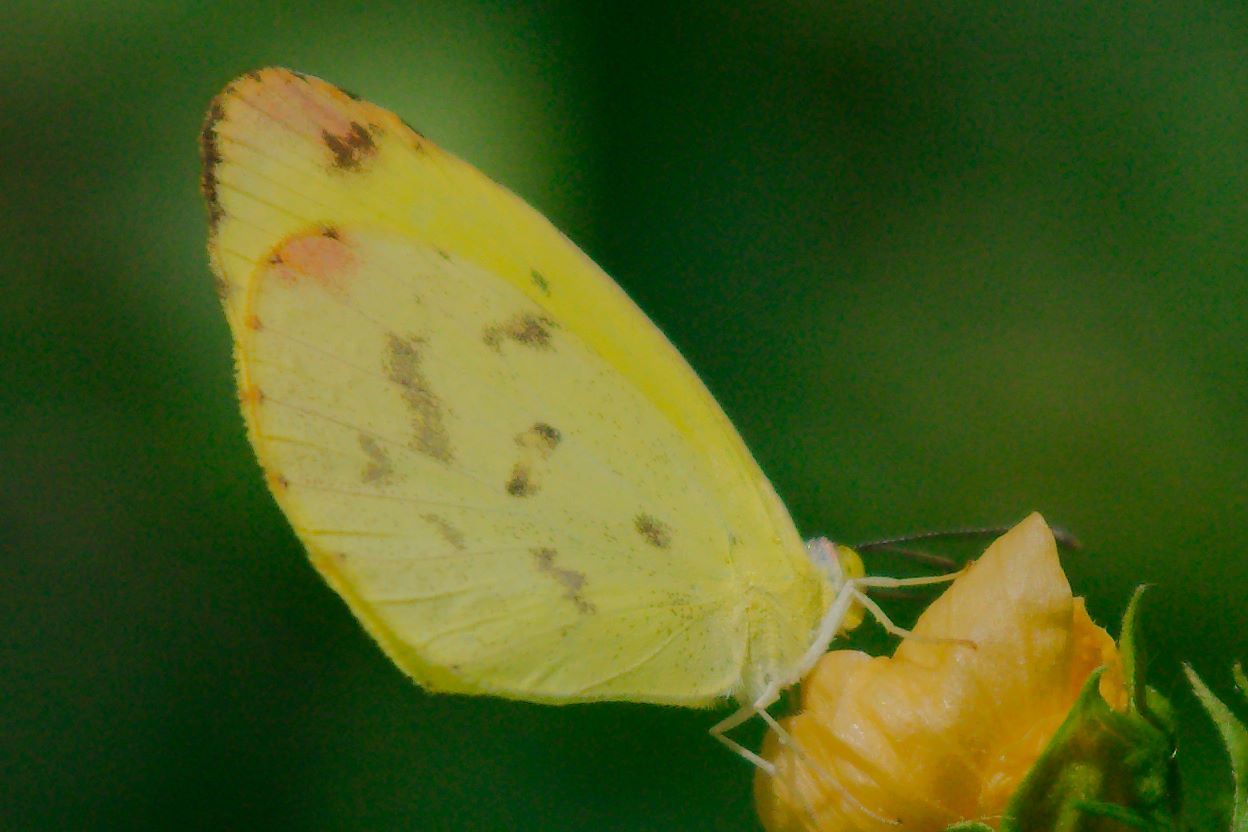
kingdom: Animalia
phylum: Arthropoda
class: Insecta
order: Lepidoptera
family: Pieridae
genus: Pyrisitia
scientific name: Pyrisitia dina
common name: Dina yellow
